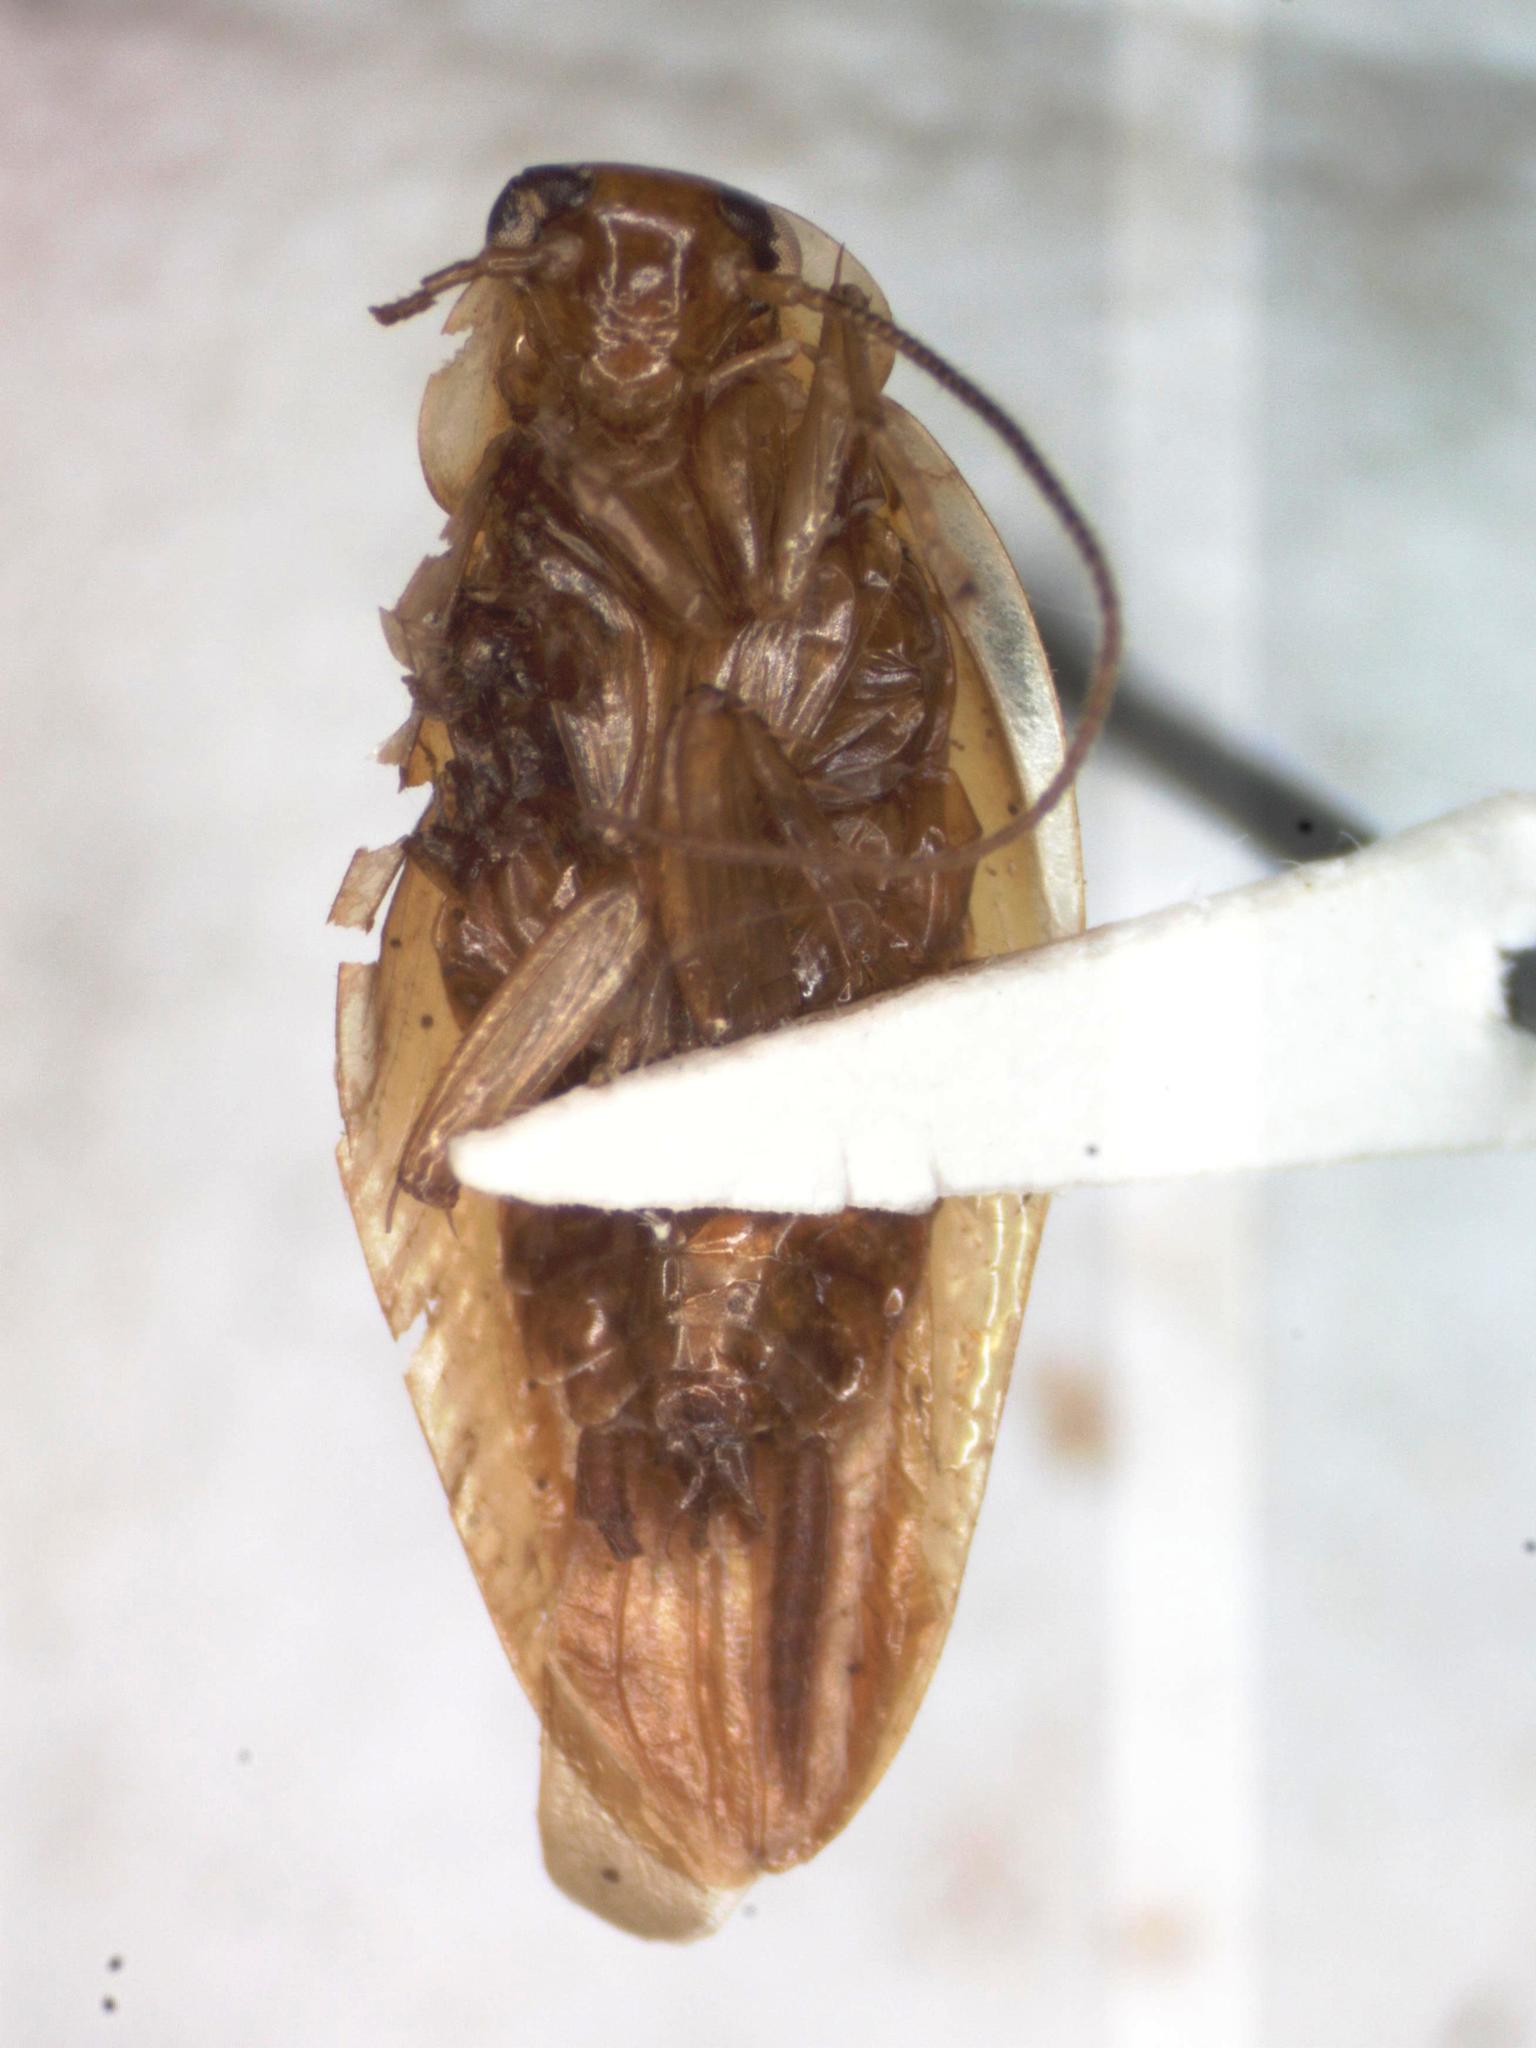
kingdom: Animalia
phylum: Arthropoda
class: Insecta
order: Blattodea
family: Ectobiidae
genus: Chorisoneura
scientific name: Chorisoneura flavipennis
